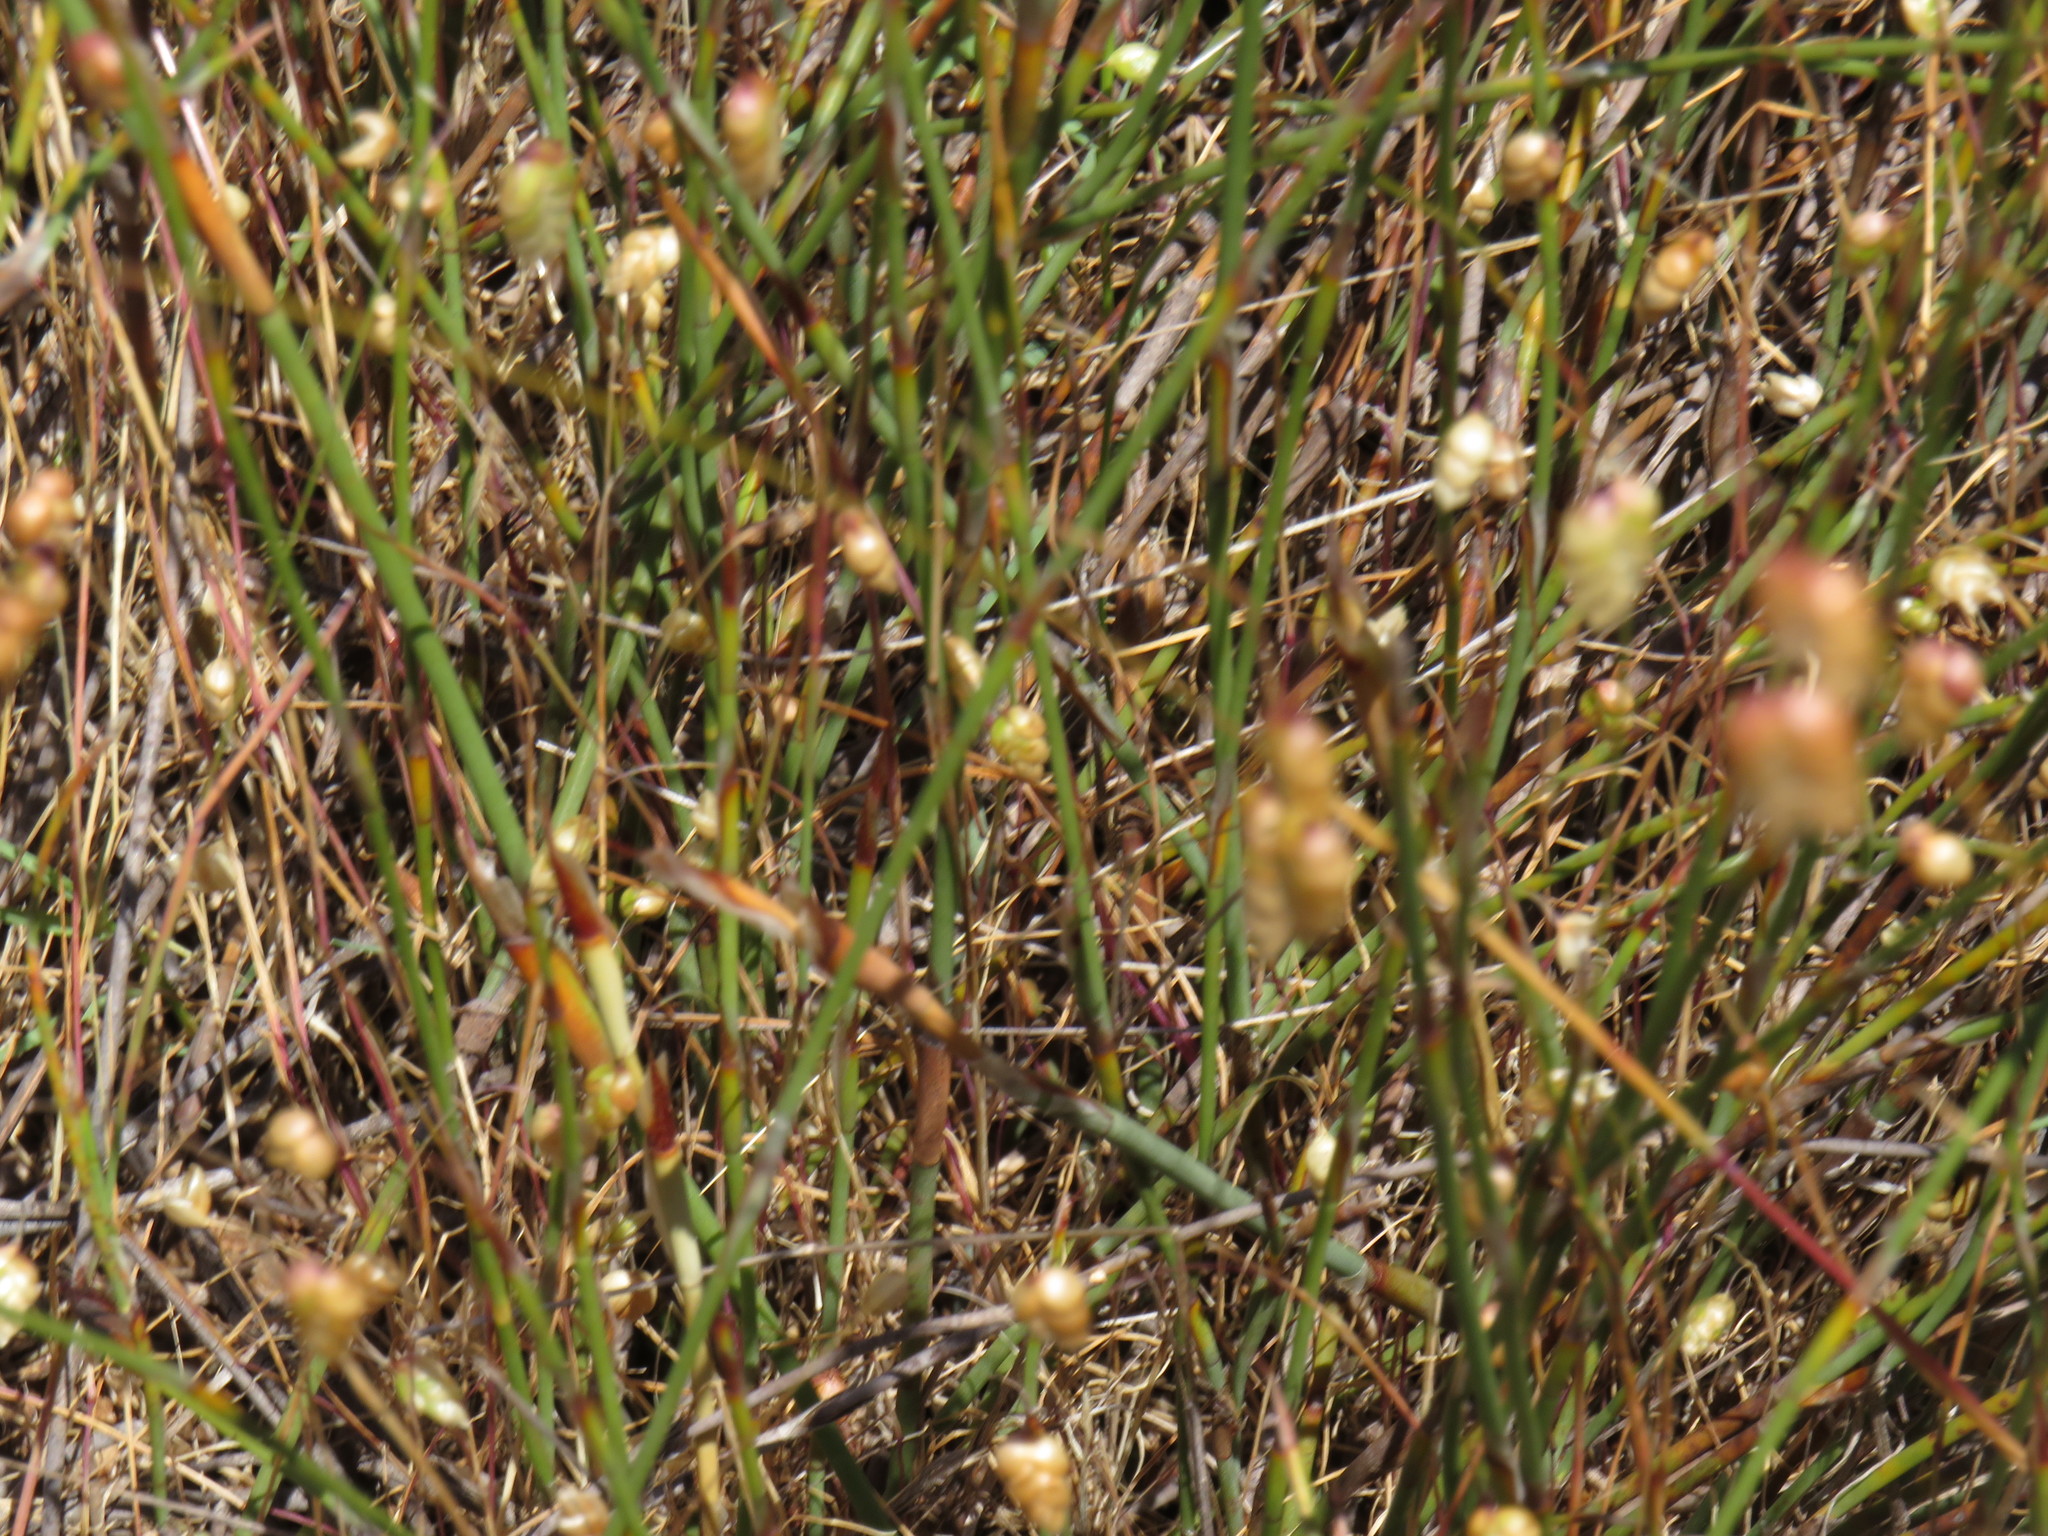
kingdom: Plantae
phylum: Tracheophyta
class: Liliopsida
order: Poales
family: Restionaceae
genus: Willdenowia
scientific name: Willdenowia sulcata
